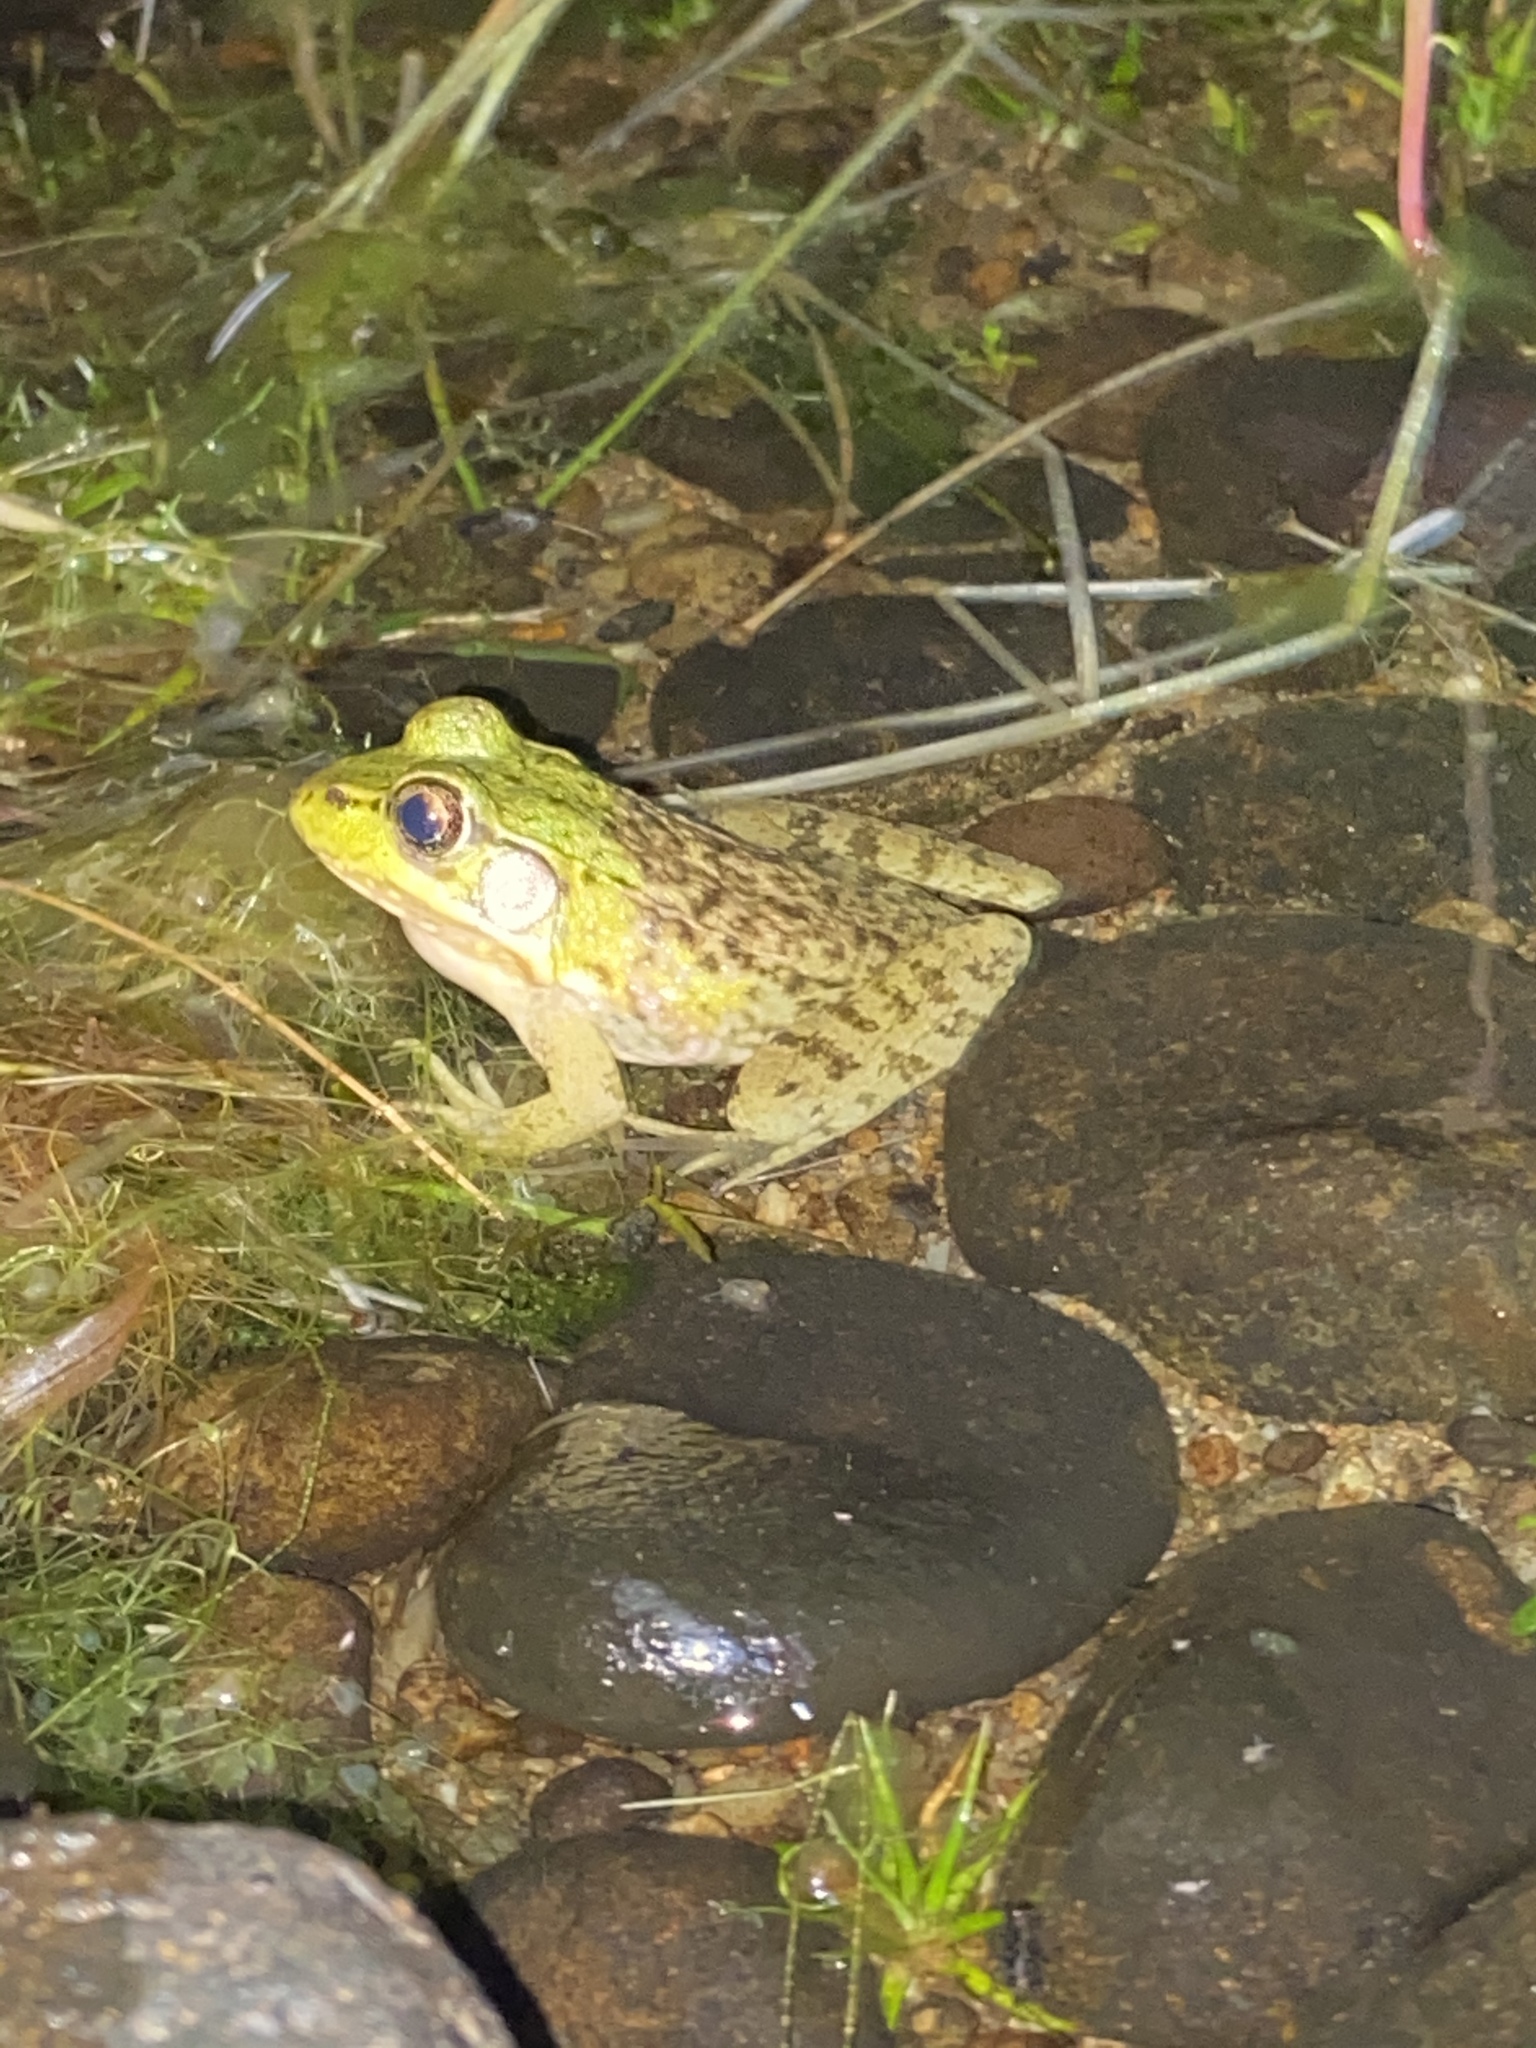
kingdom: Animalia
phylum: Chordata
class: Amphibia
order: Anura
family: Ranidae
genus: Lithobates
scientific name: Lithobates clamitans
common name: Green frog
